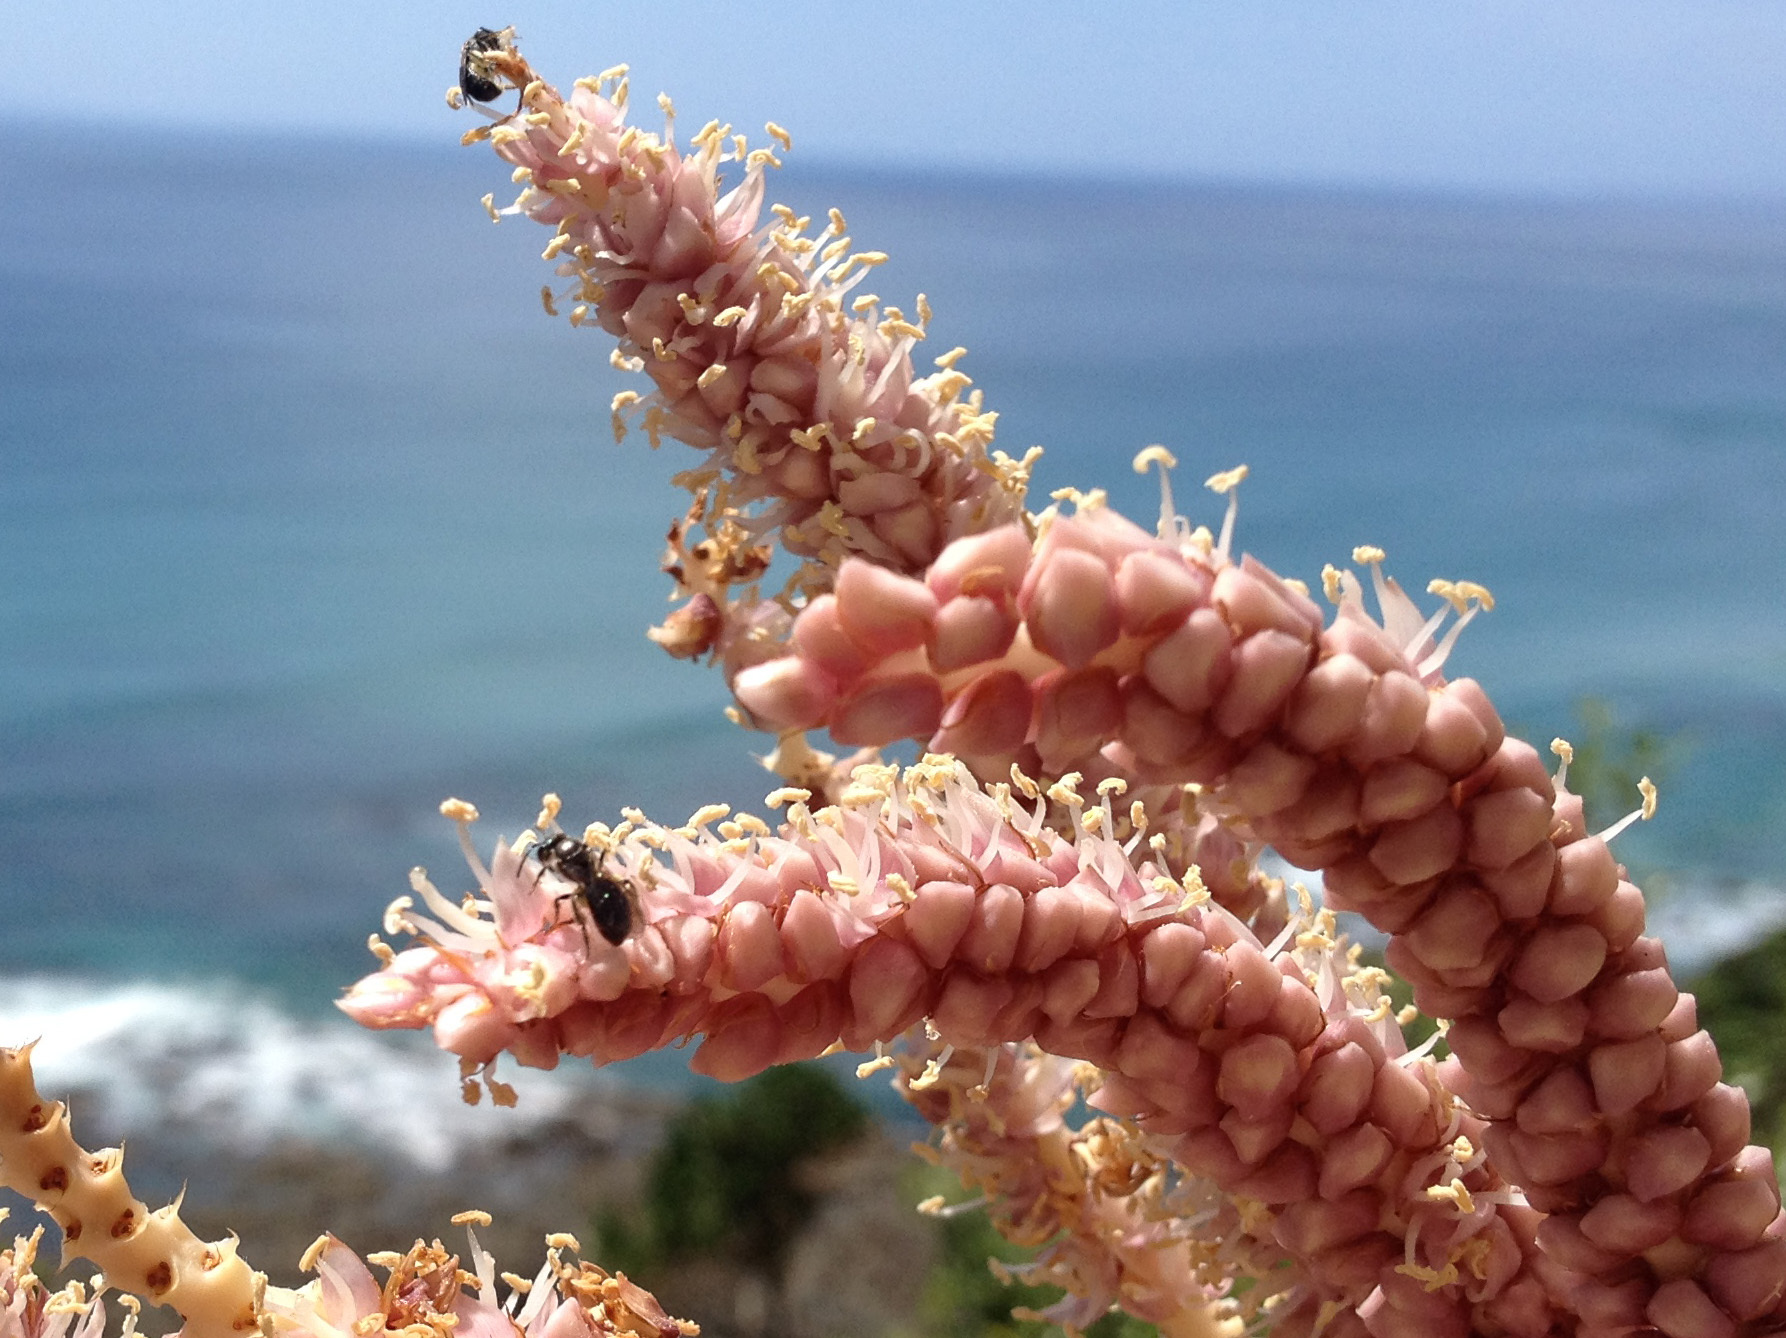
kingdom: Animalia
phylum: Arthropoda
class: Insecta
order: Hymenoptera
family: Halictidae
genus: Lasioglossum
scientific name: Lasioglossum sordidum
